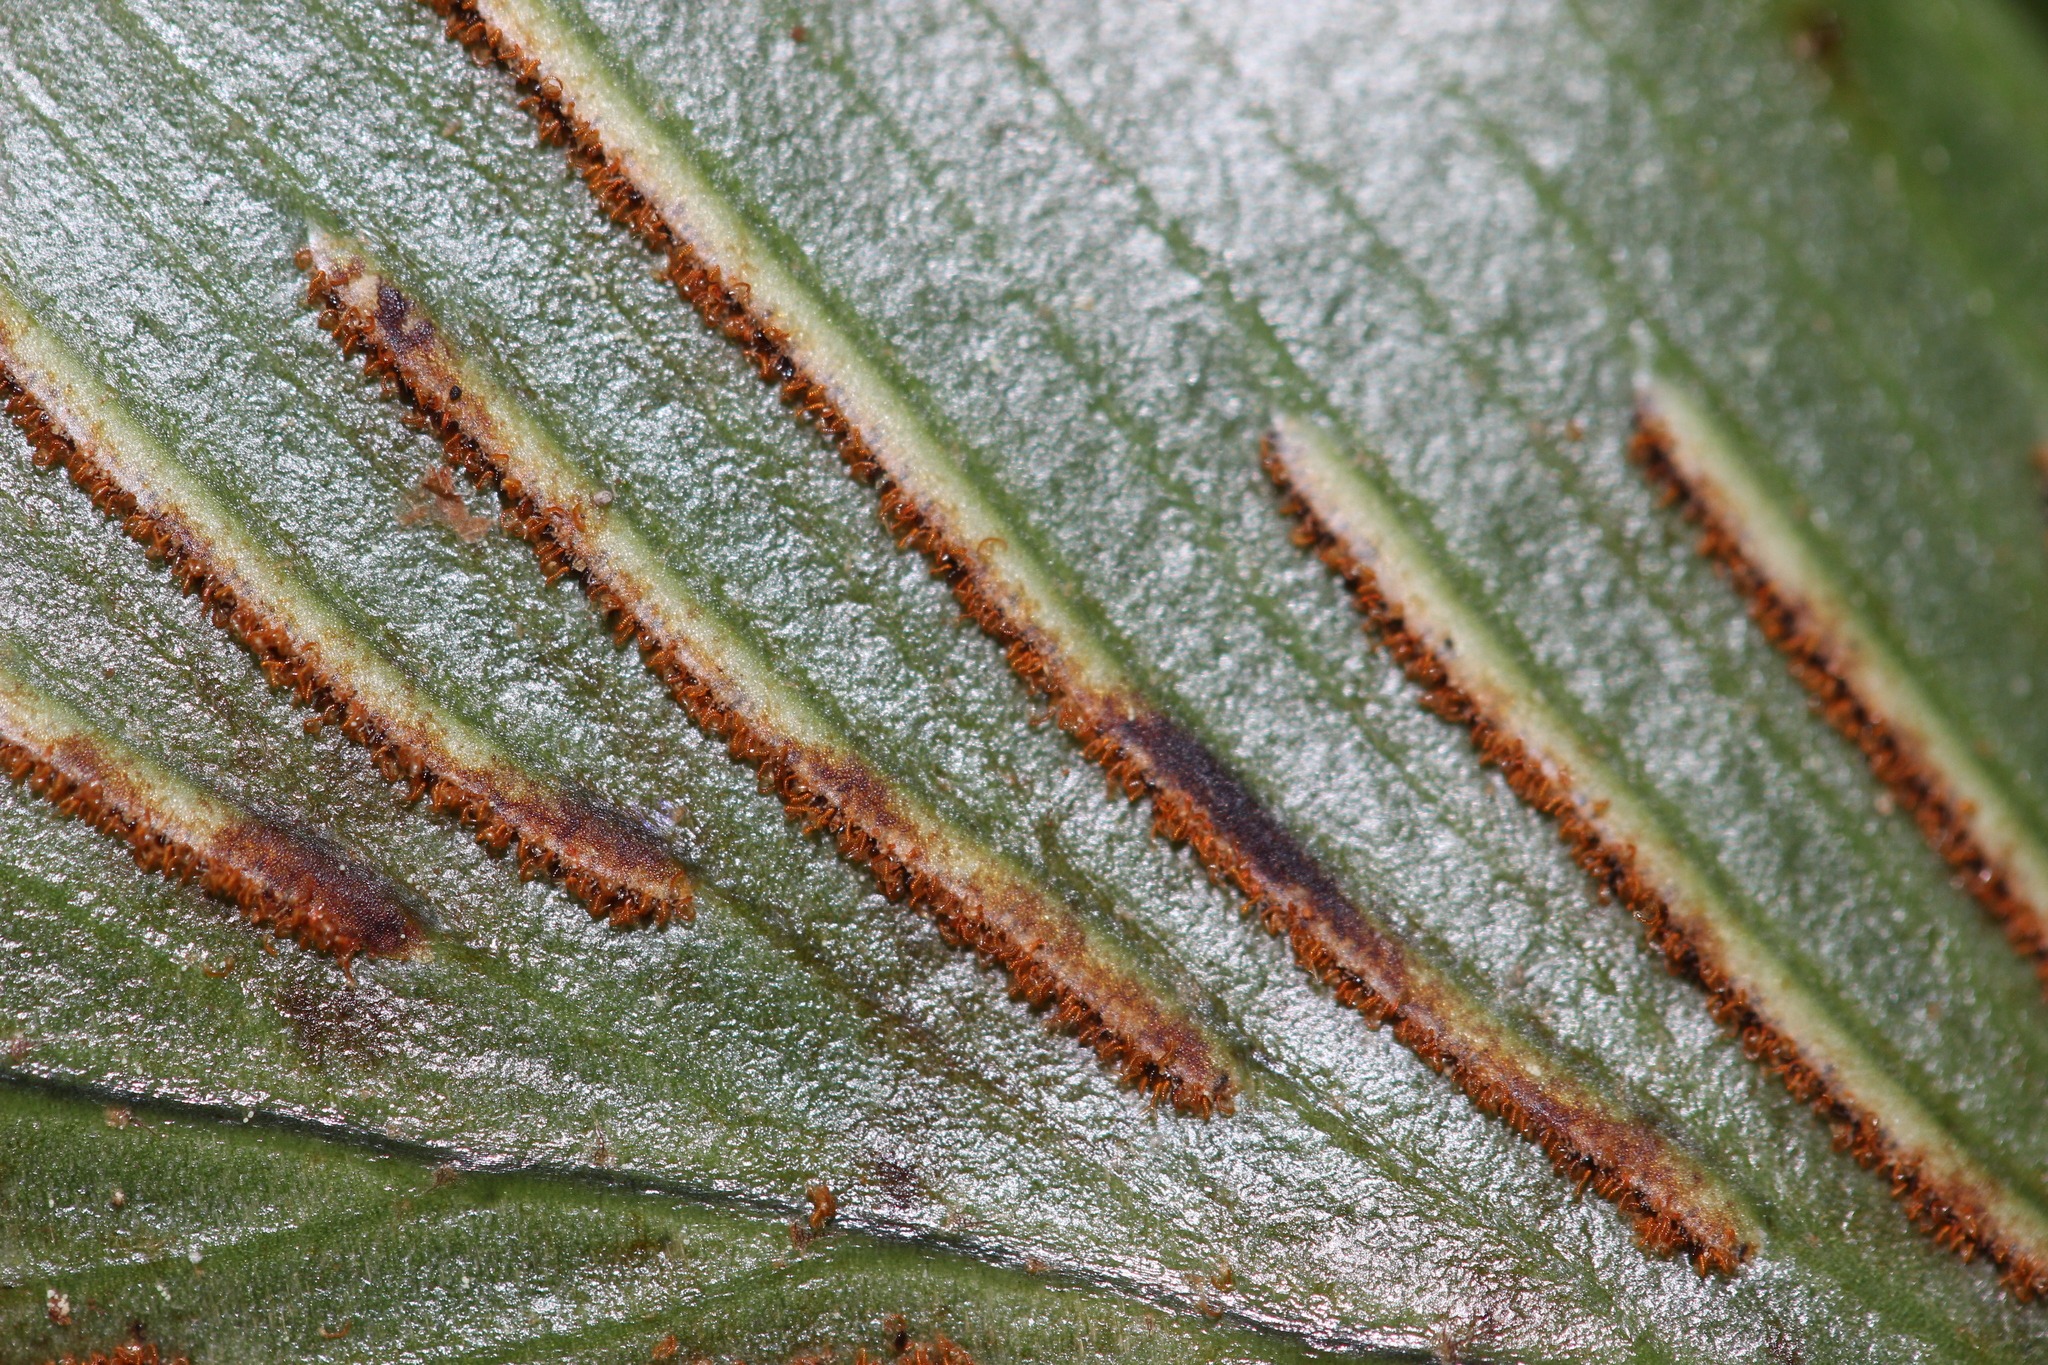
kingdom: Plantae
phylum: Tracheophyta
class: Polypodiopsida
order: Polypodiales
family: Aspleniaceae
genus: Asplenium
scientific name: Asplenium oblongifolium
